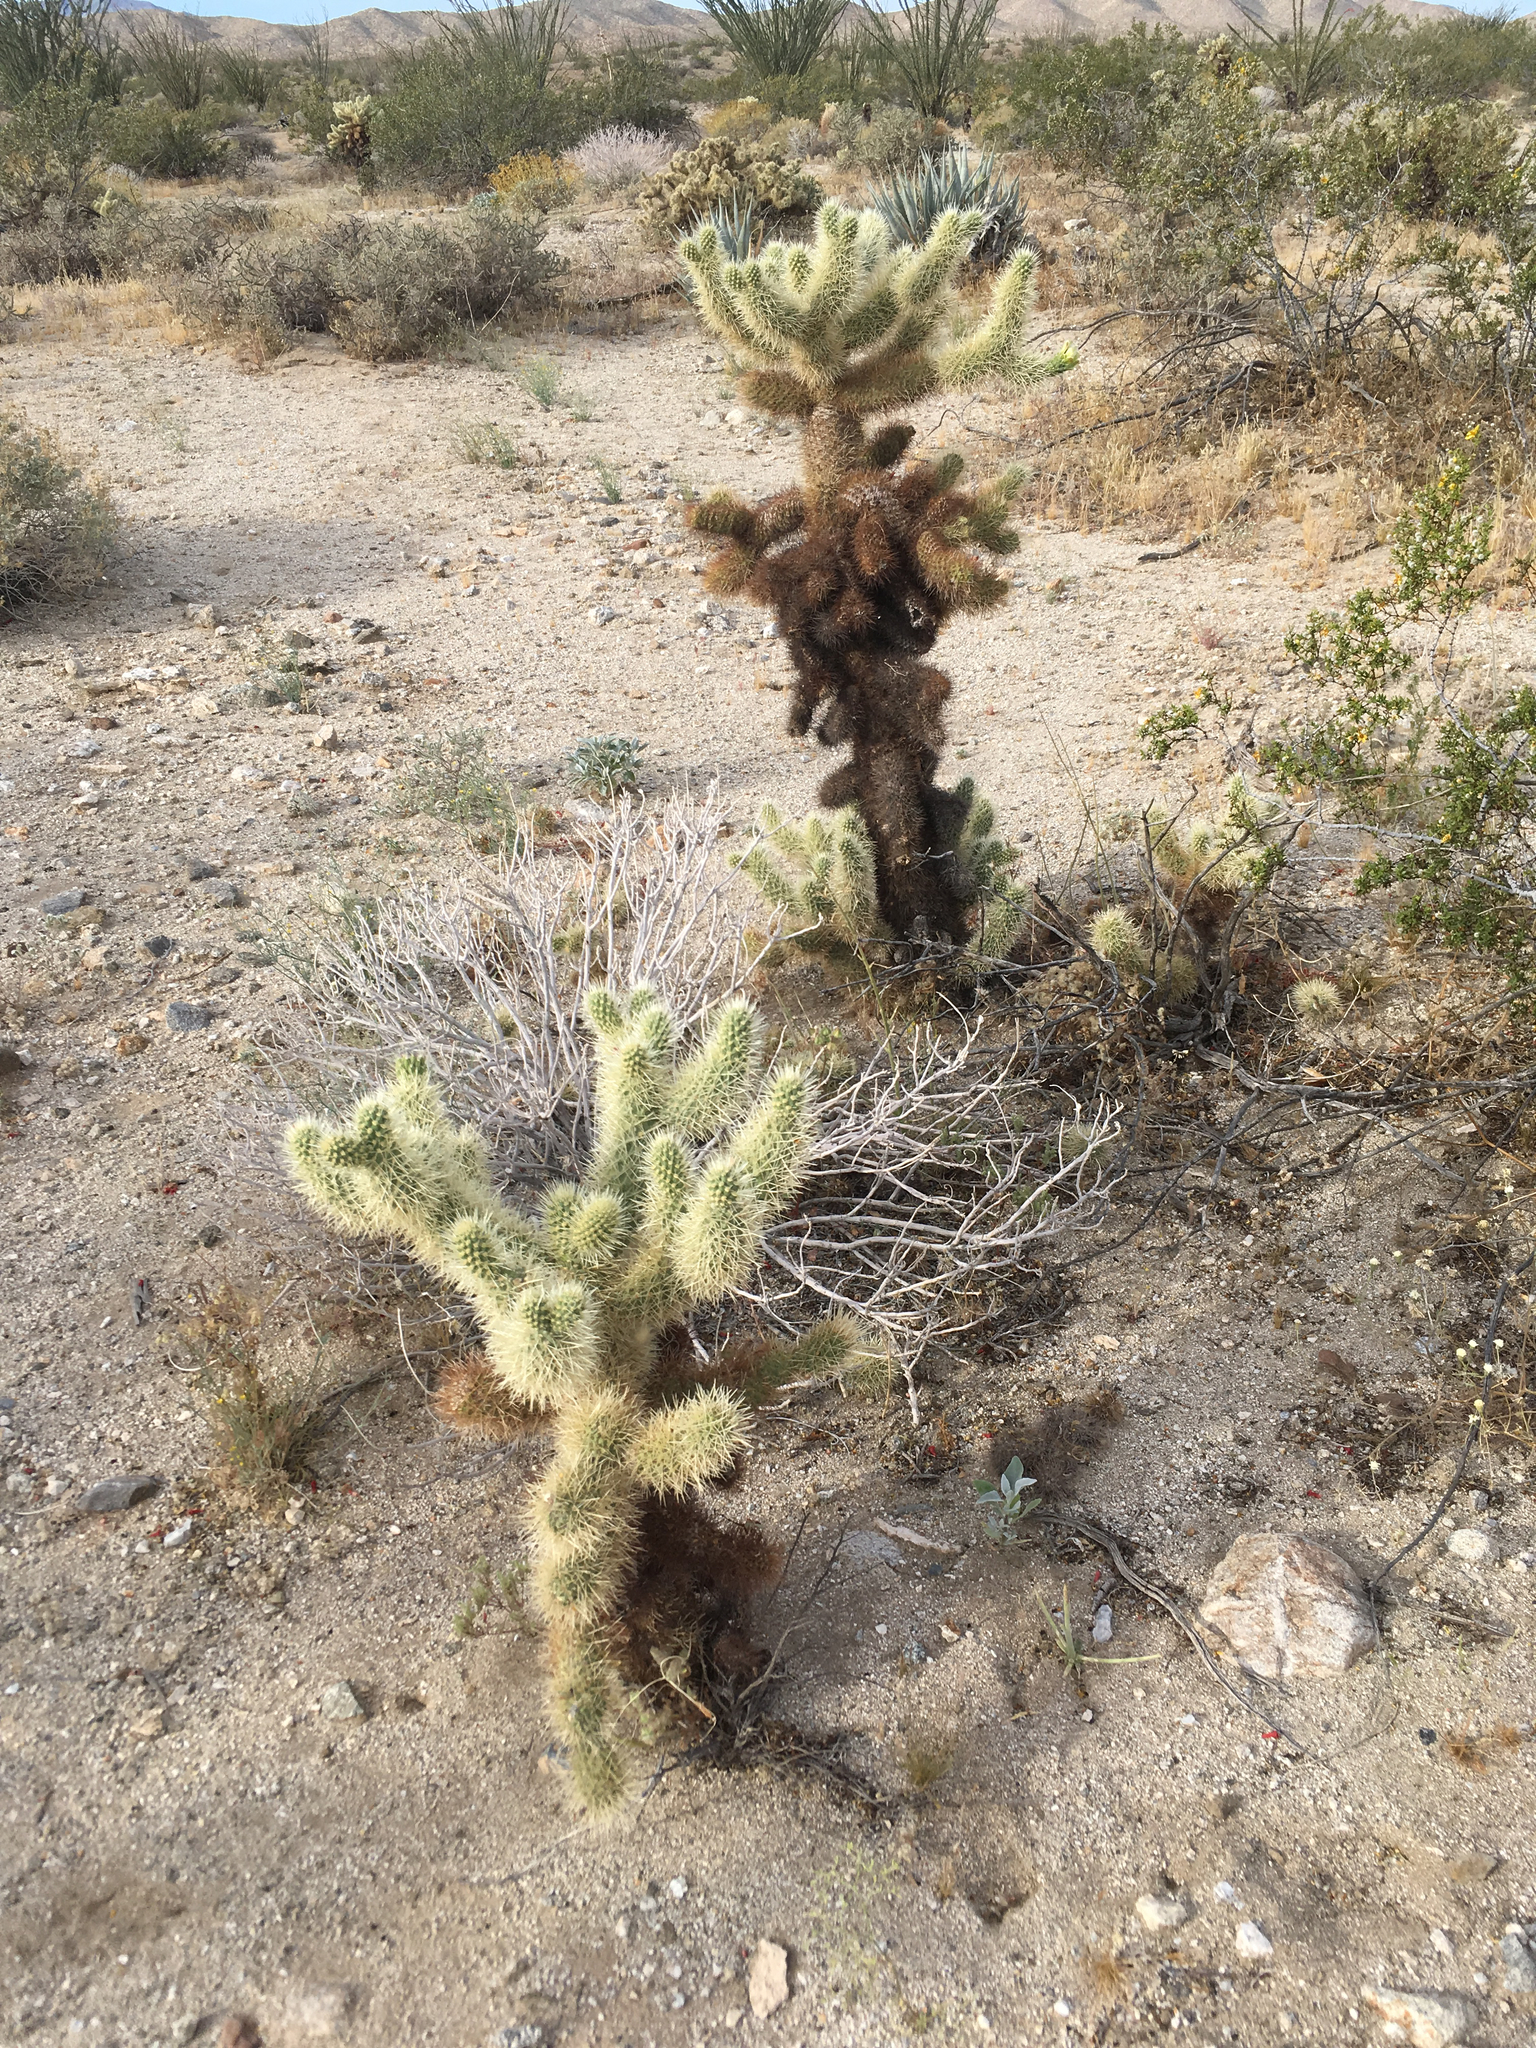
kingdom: Plantae
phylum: Tracheophyta
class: Magnoliopsida
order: Caryophyllales
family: Cactaceae
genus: Cylindropuntia
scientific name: Cylindropuntia fosbergii
